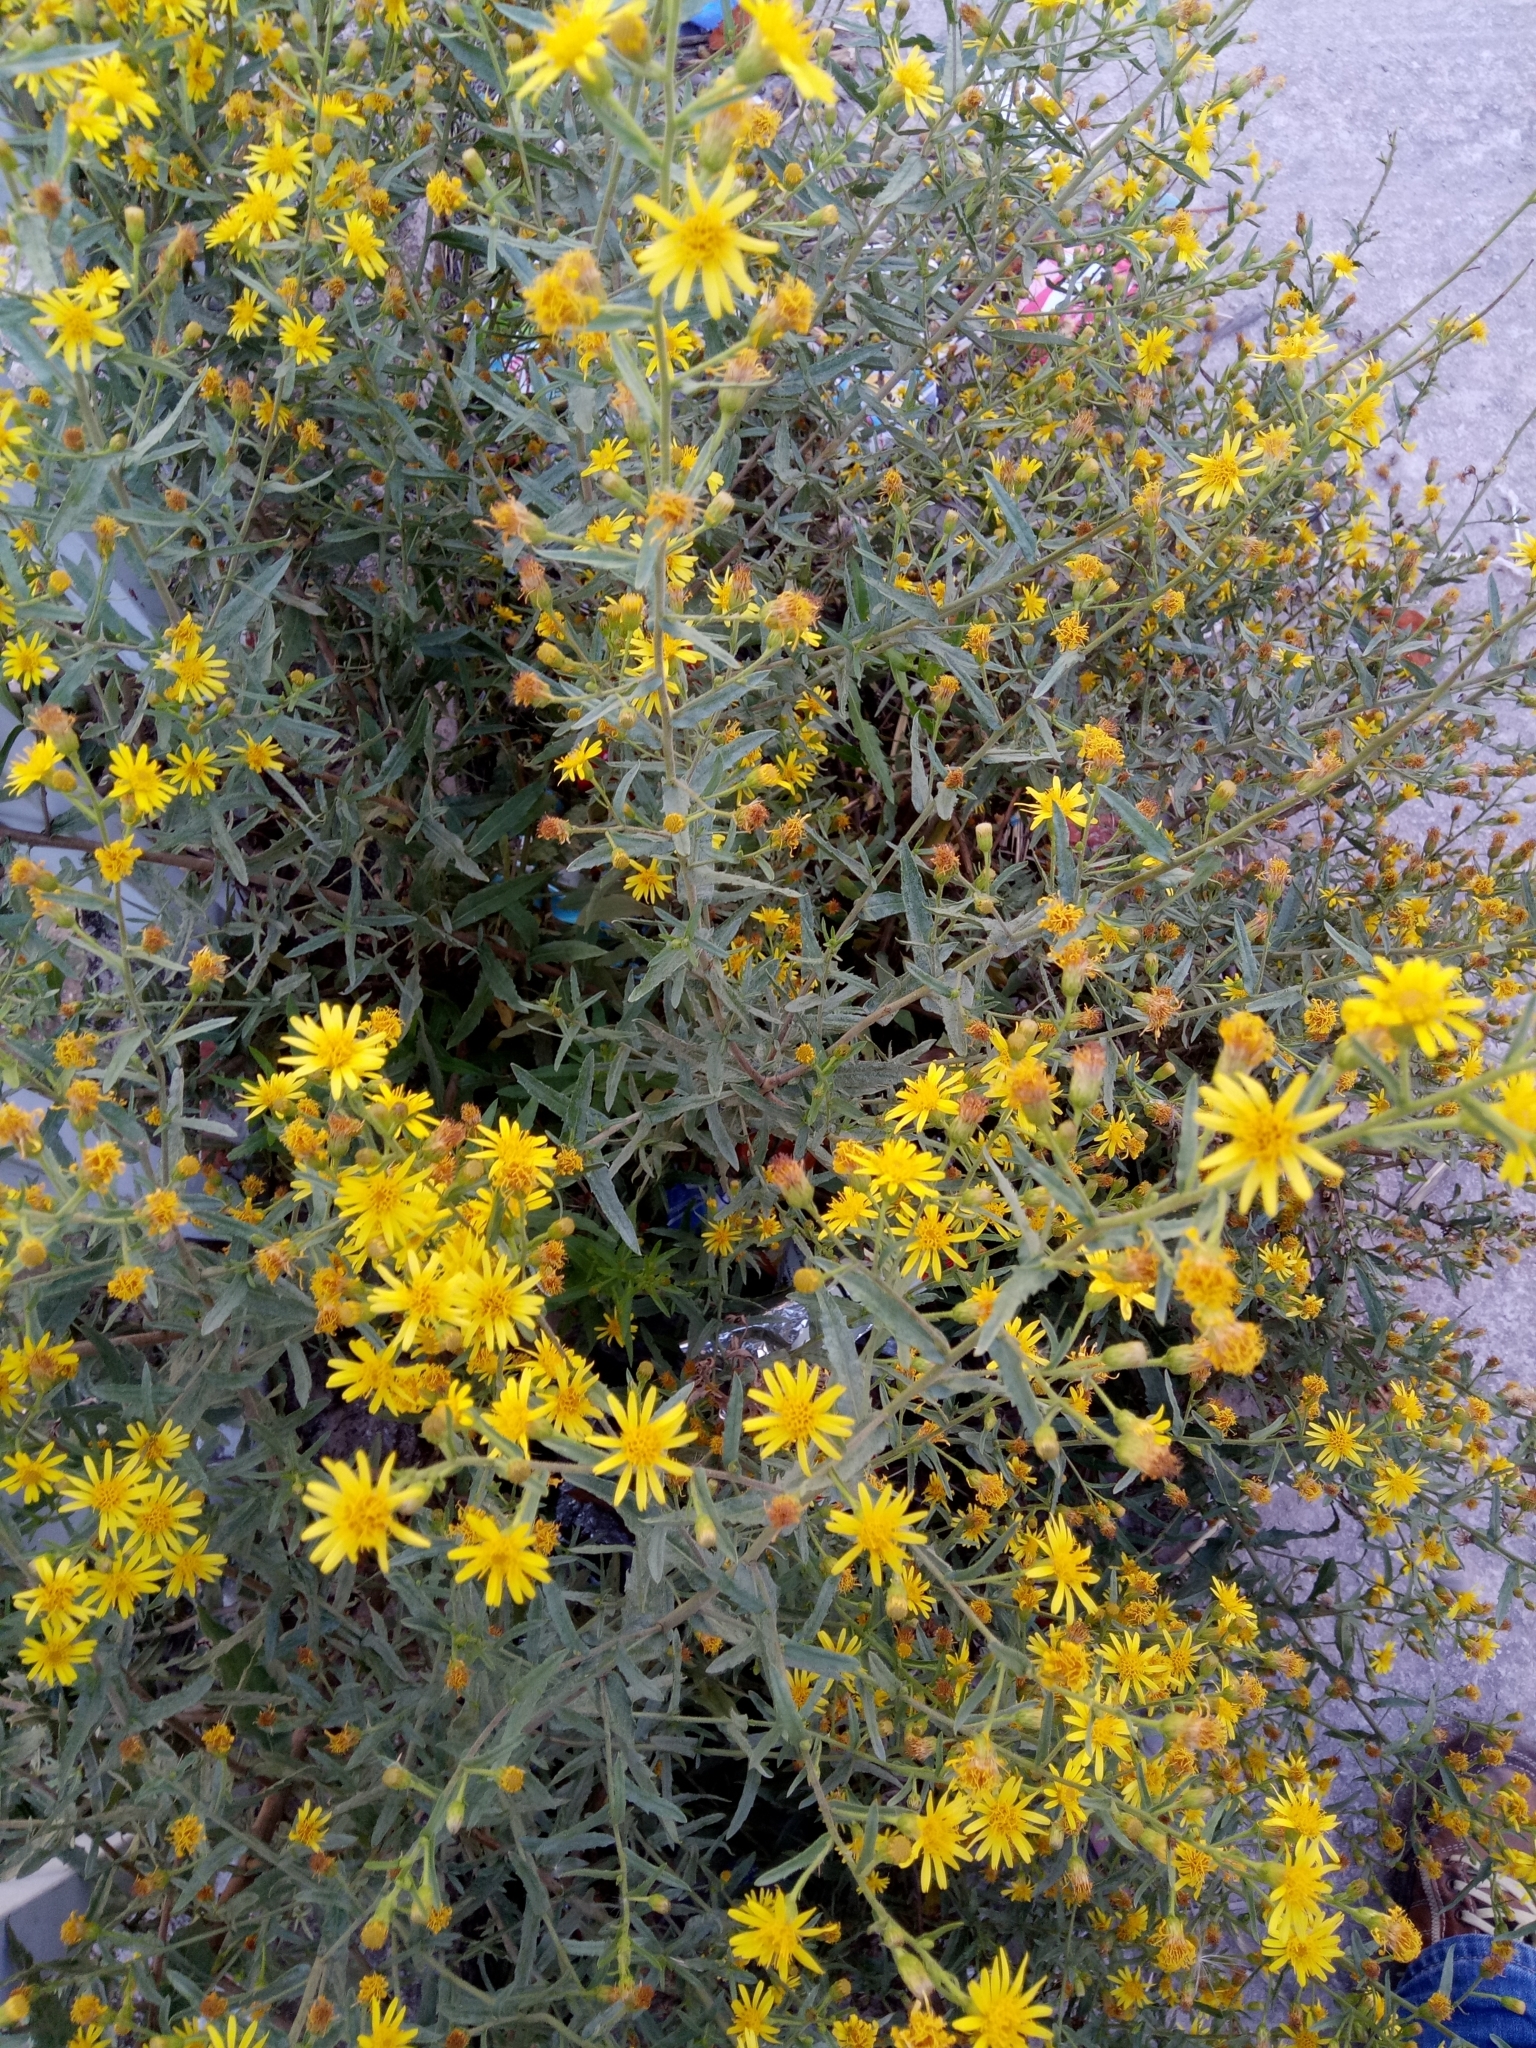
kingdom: Plantae
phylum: Tracheophyta
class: Magnoliopsida
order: Asterales
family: Asteraceae
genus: Dittrichia
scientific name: Dittrichia viscosa
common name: Woody fleabane
